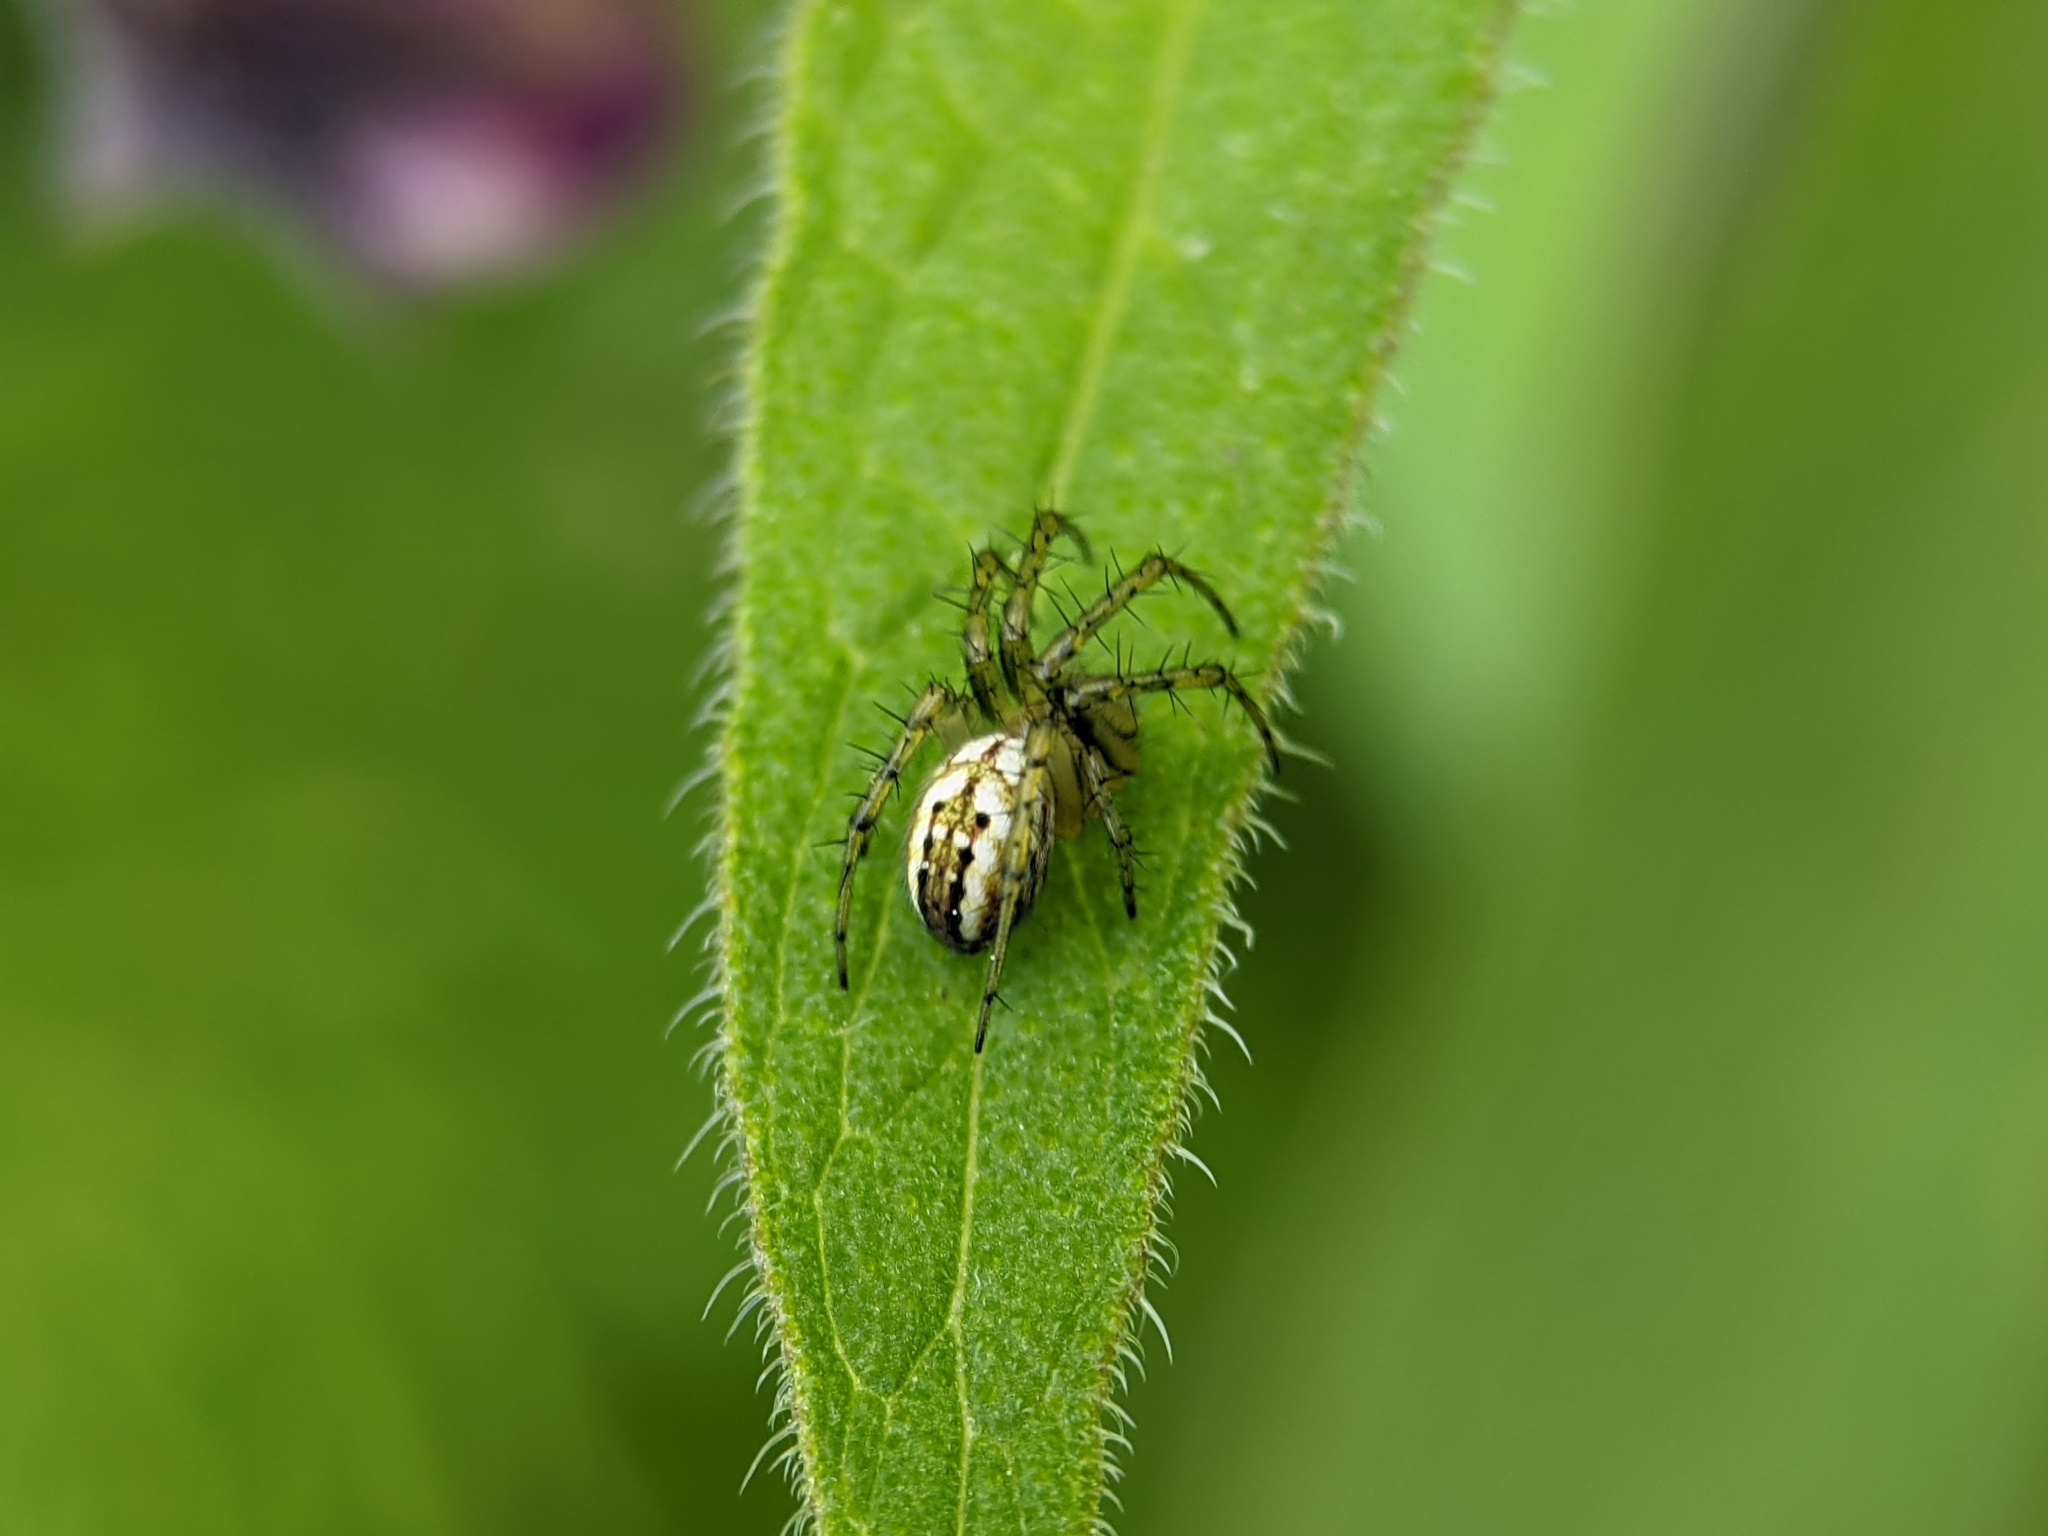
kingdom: Animalia
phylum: Arthropoda
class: Arachnida
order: Araneae
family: Araneidae
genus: Mangora
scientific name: Mangora acalypha
